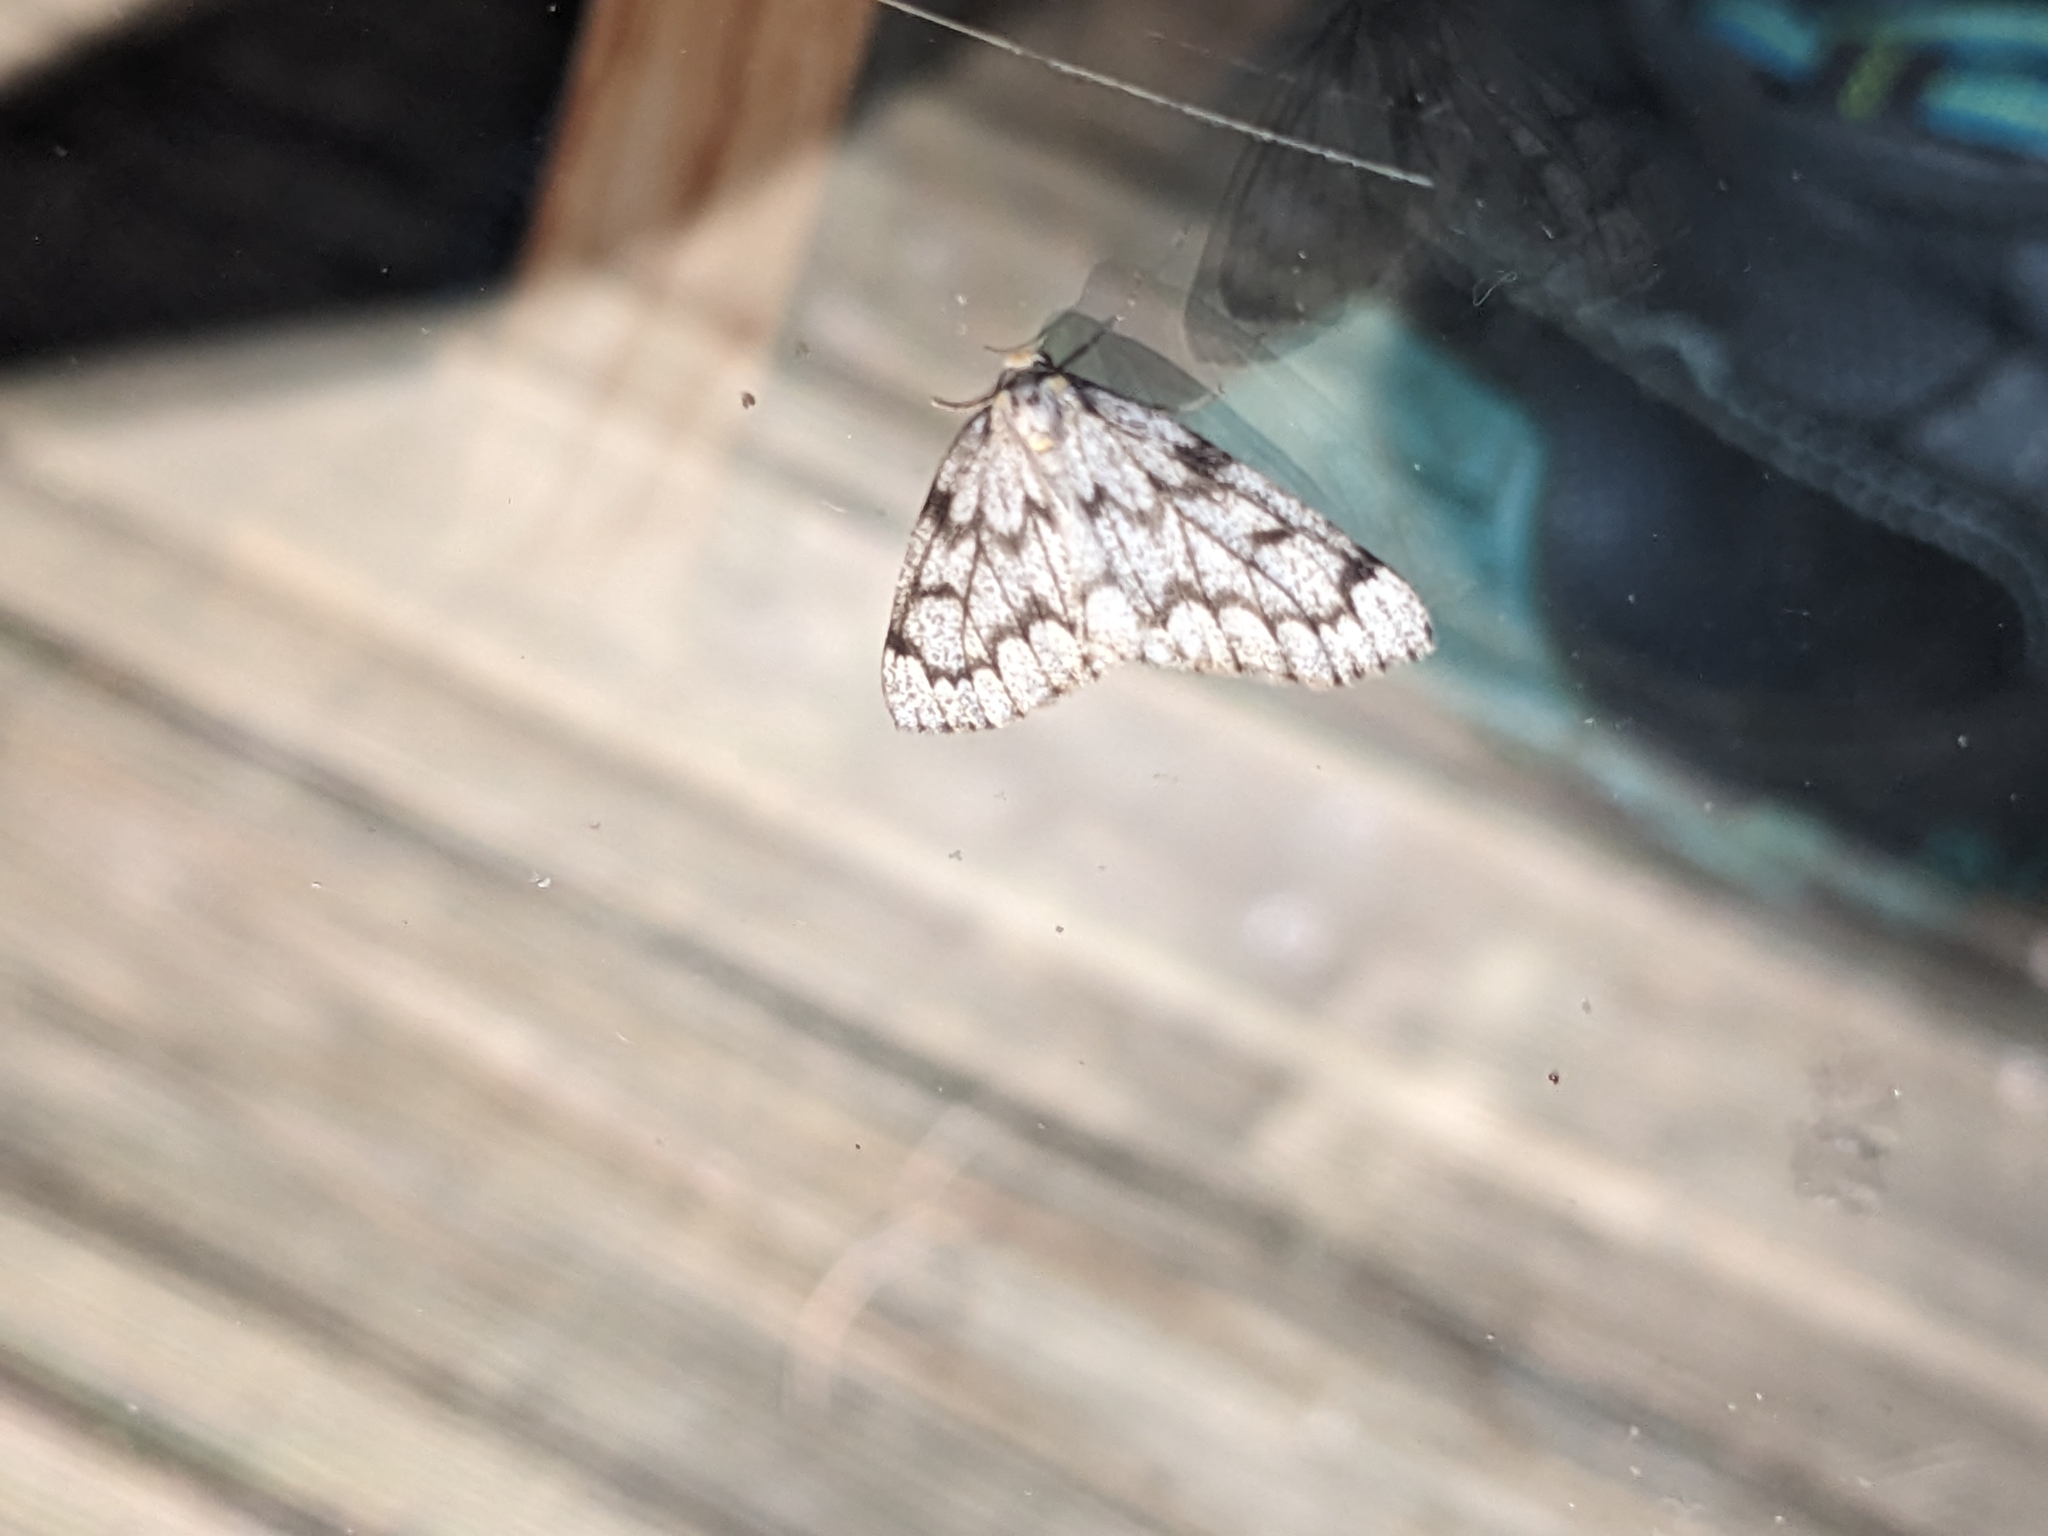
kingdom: Animalia
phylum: Arthropoda
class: Insecta
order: Lepidoptera
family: Geometridae
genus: Nepytia
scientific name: Nepytia canosaria
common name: False hemlock looper
